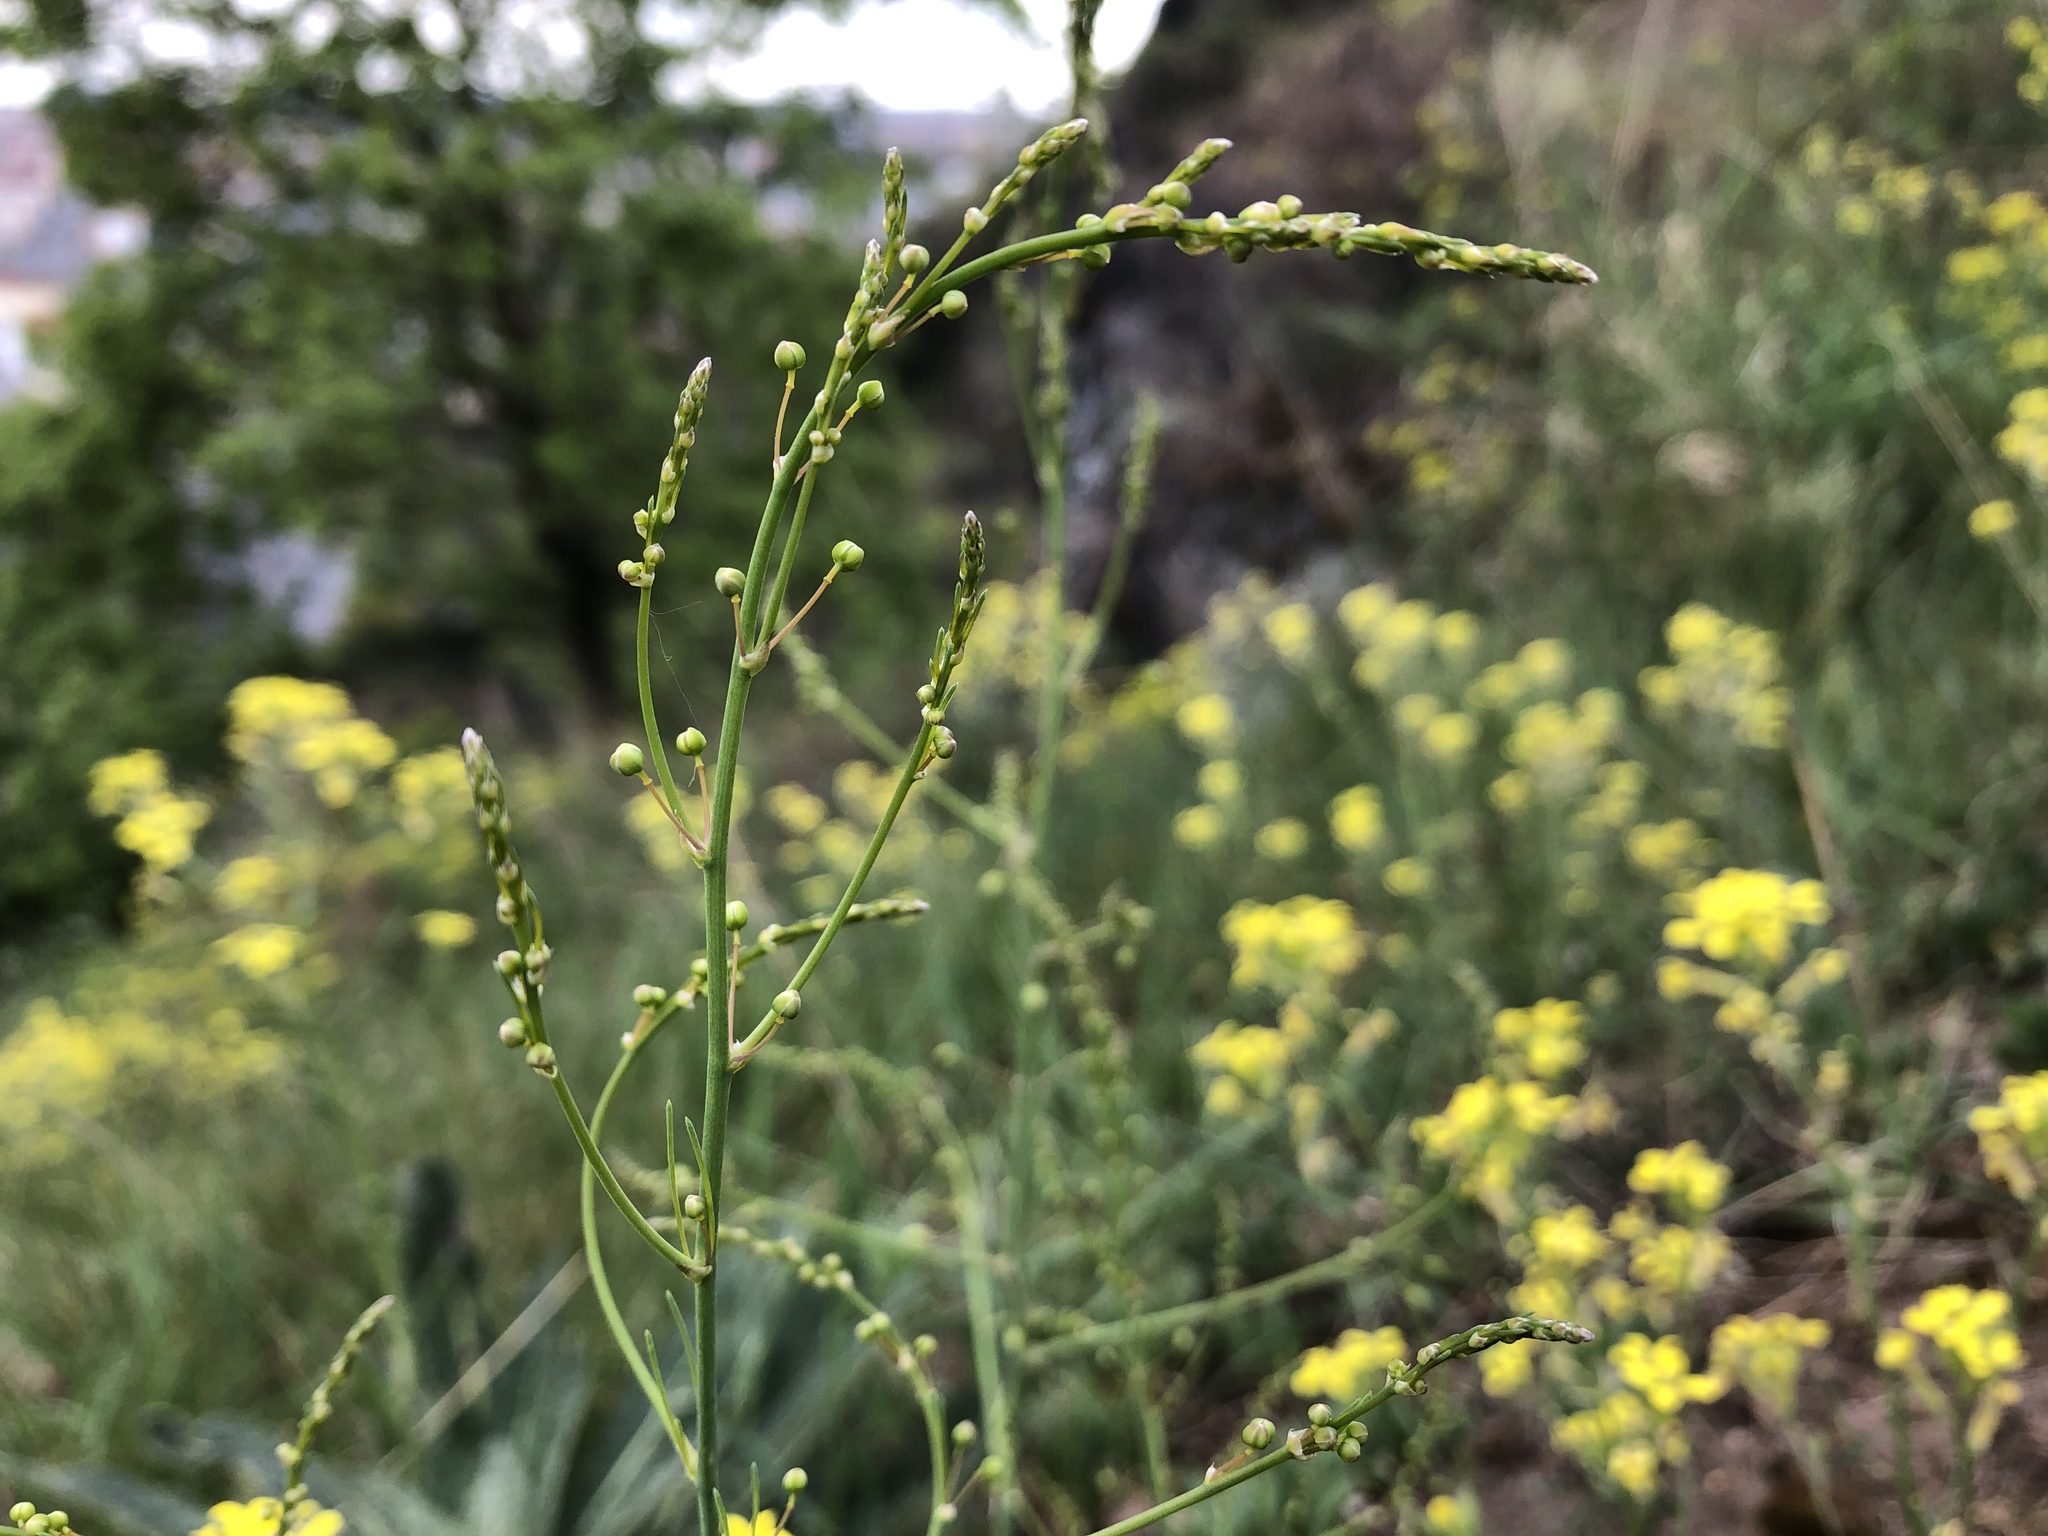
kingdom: Plantae
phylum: Tracheophyta
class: Liliopsida
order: Asparagales
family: Asparagaceae
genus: Asparagus
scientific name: Asparagus officinalis
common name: Garden asparagus
